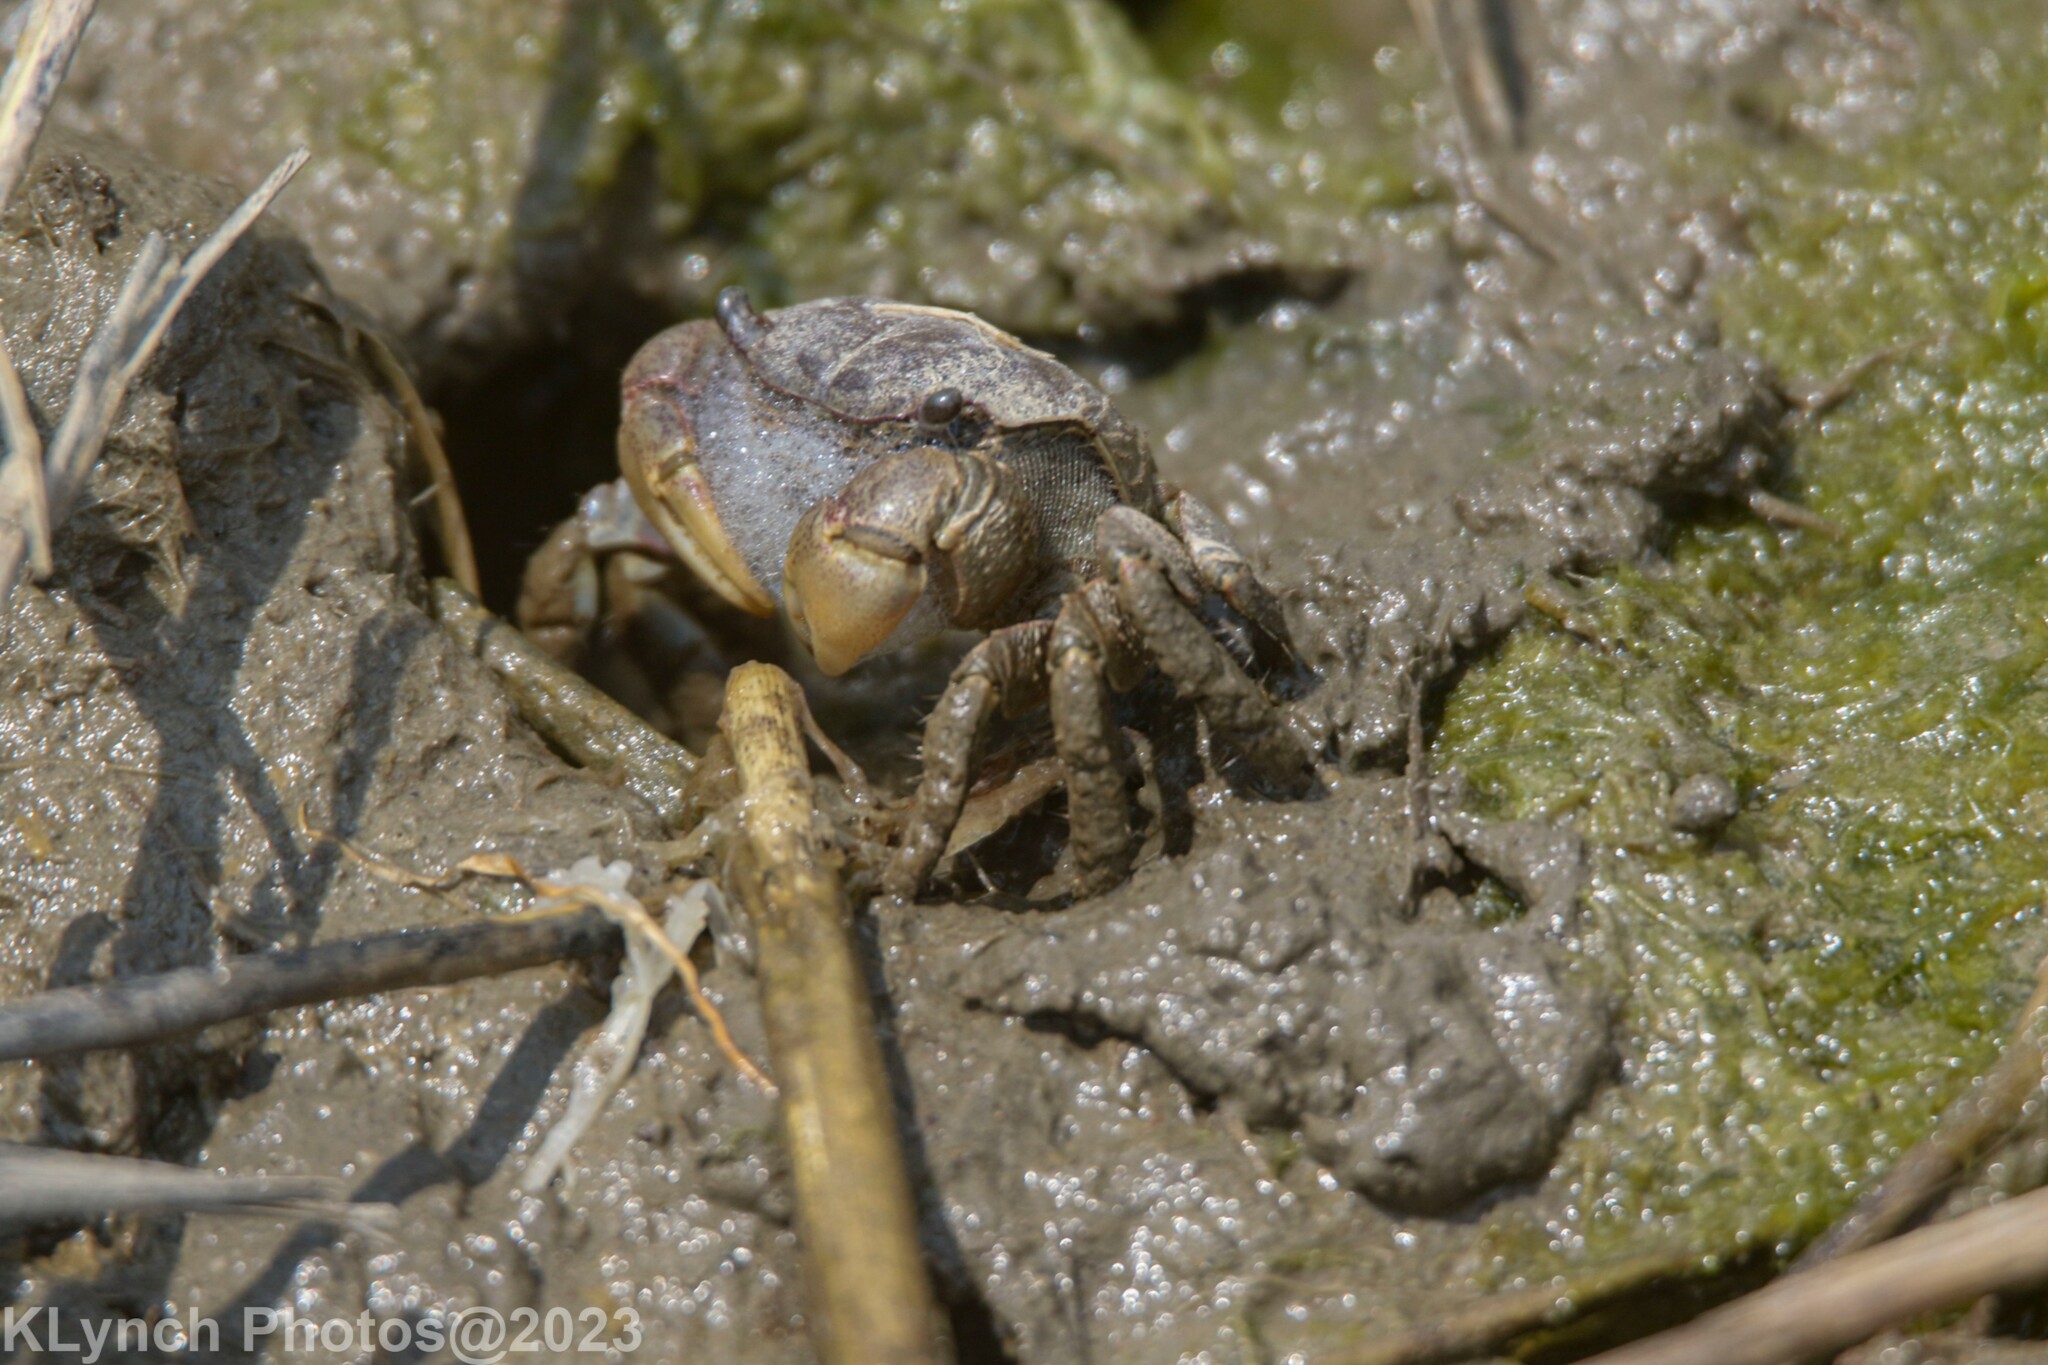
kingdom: Animalia
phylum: Arthropoda
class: Malacostraca
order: Decapoda
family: Sesarmidae
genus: Sesarma
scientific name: Sesarma reticulatum
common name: Heavy marsh crab
